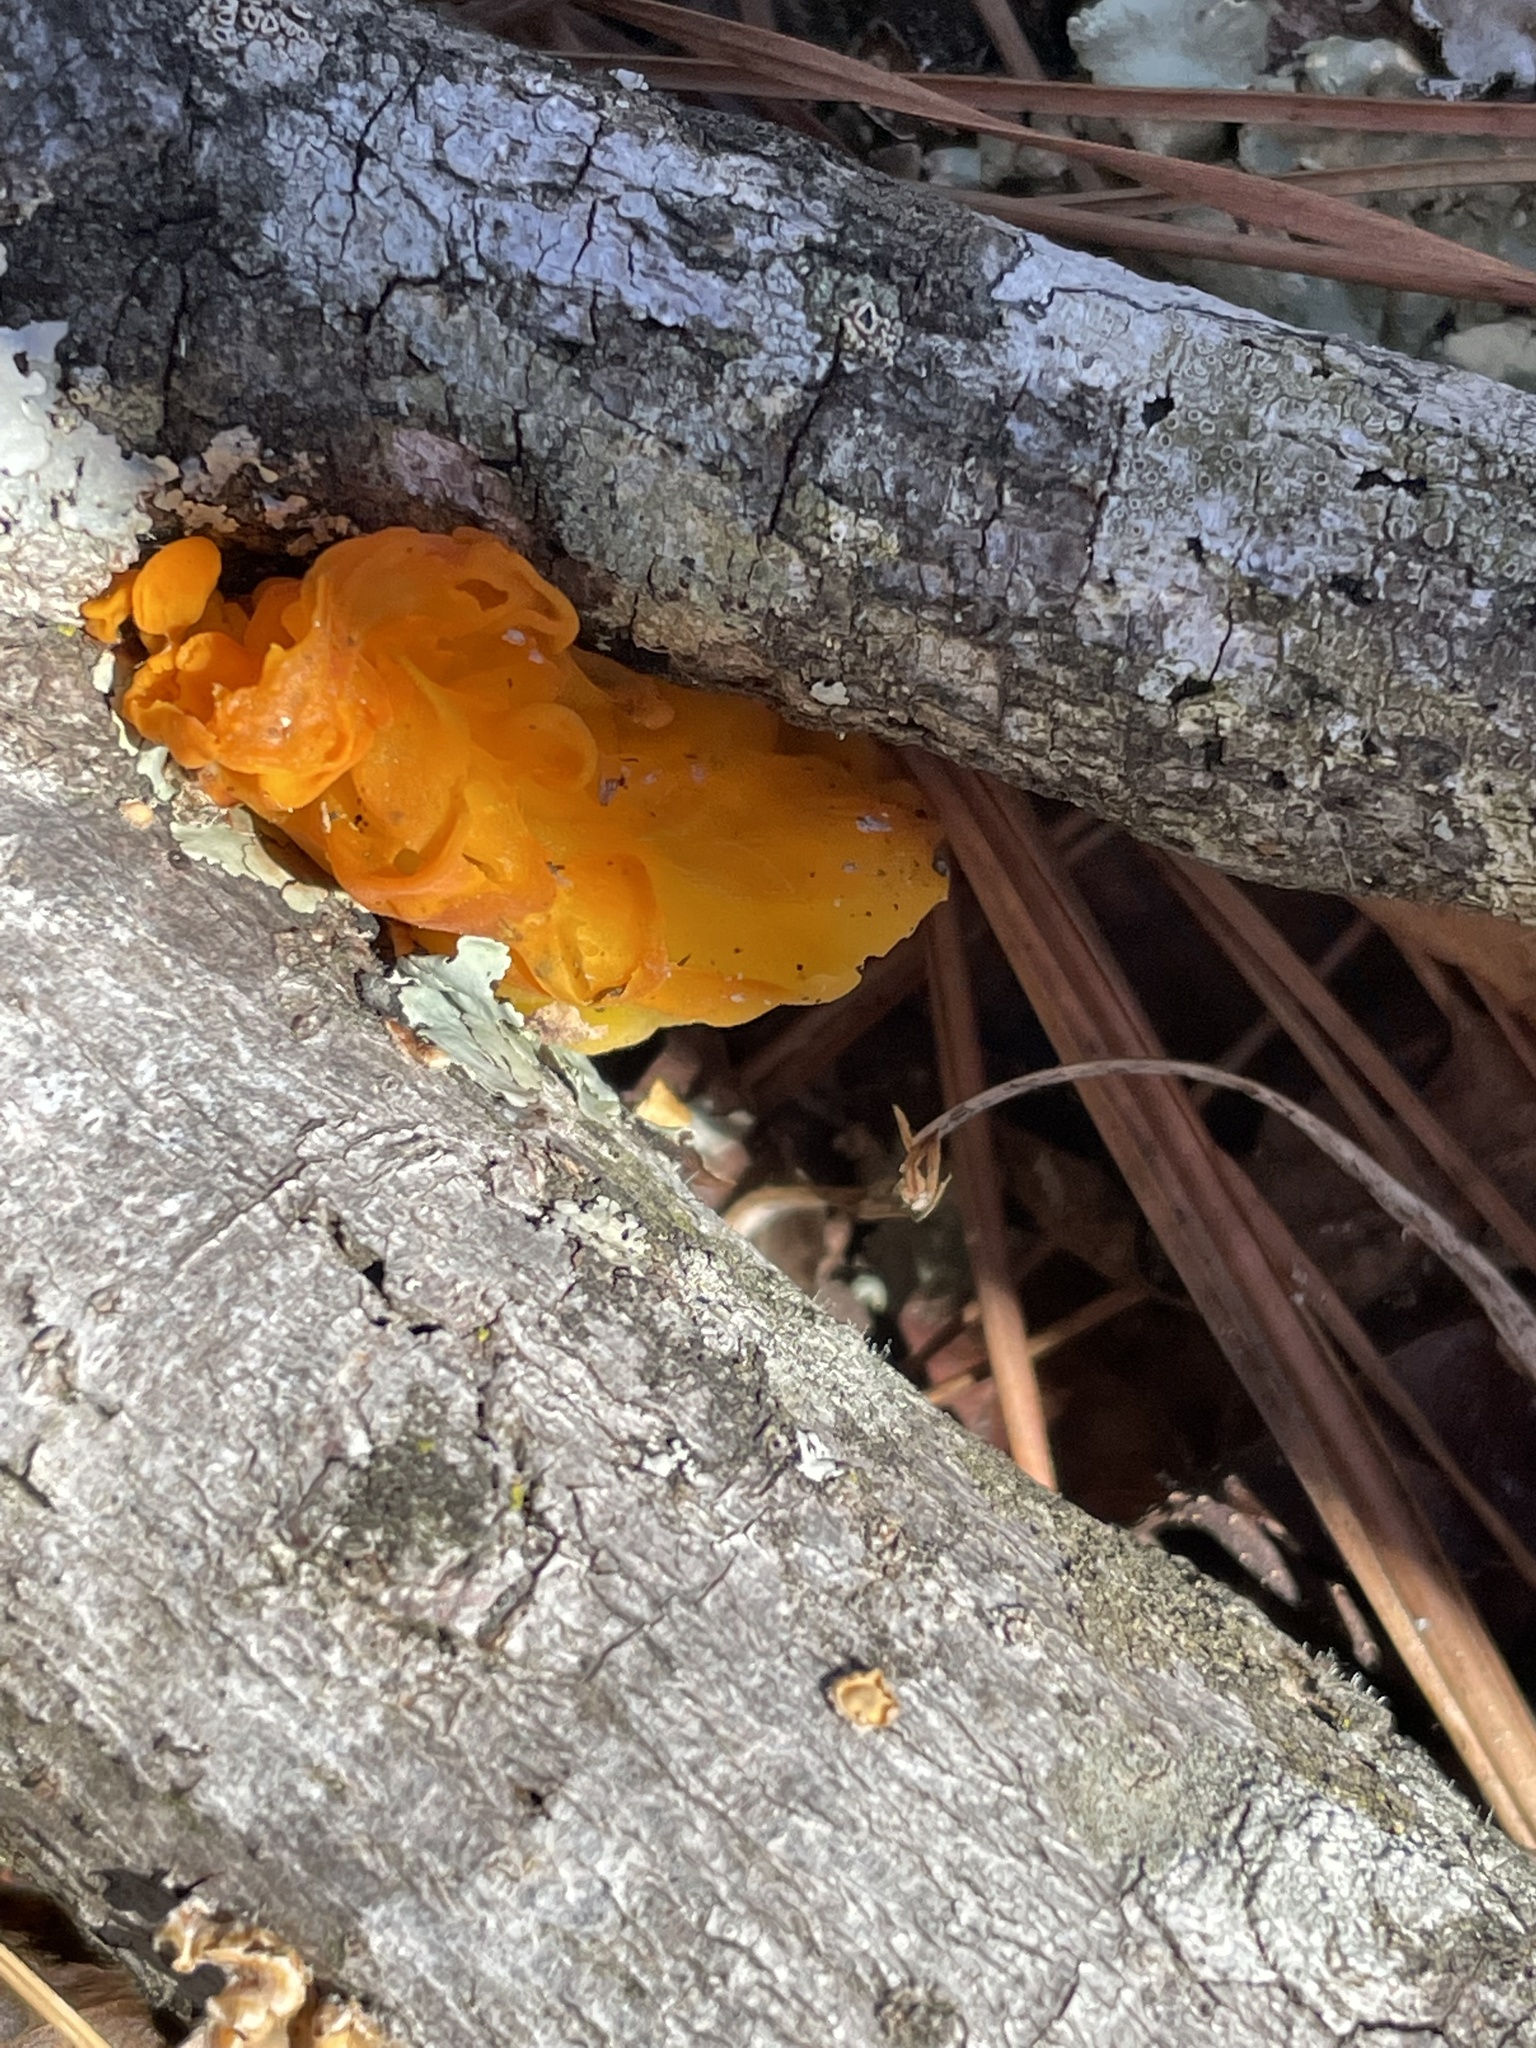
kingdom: Fungi
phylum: Basidiomycota
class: Tremellomycetes
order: Tremellales
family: Tremellaceae
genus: Tremella
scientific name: Tremella mesenterica
